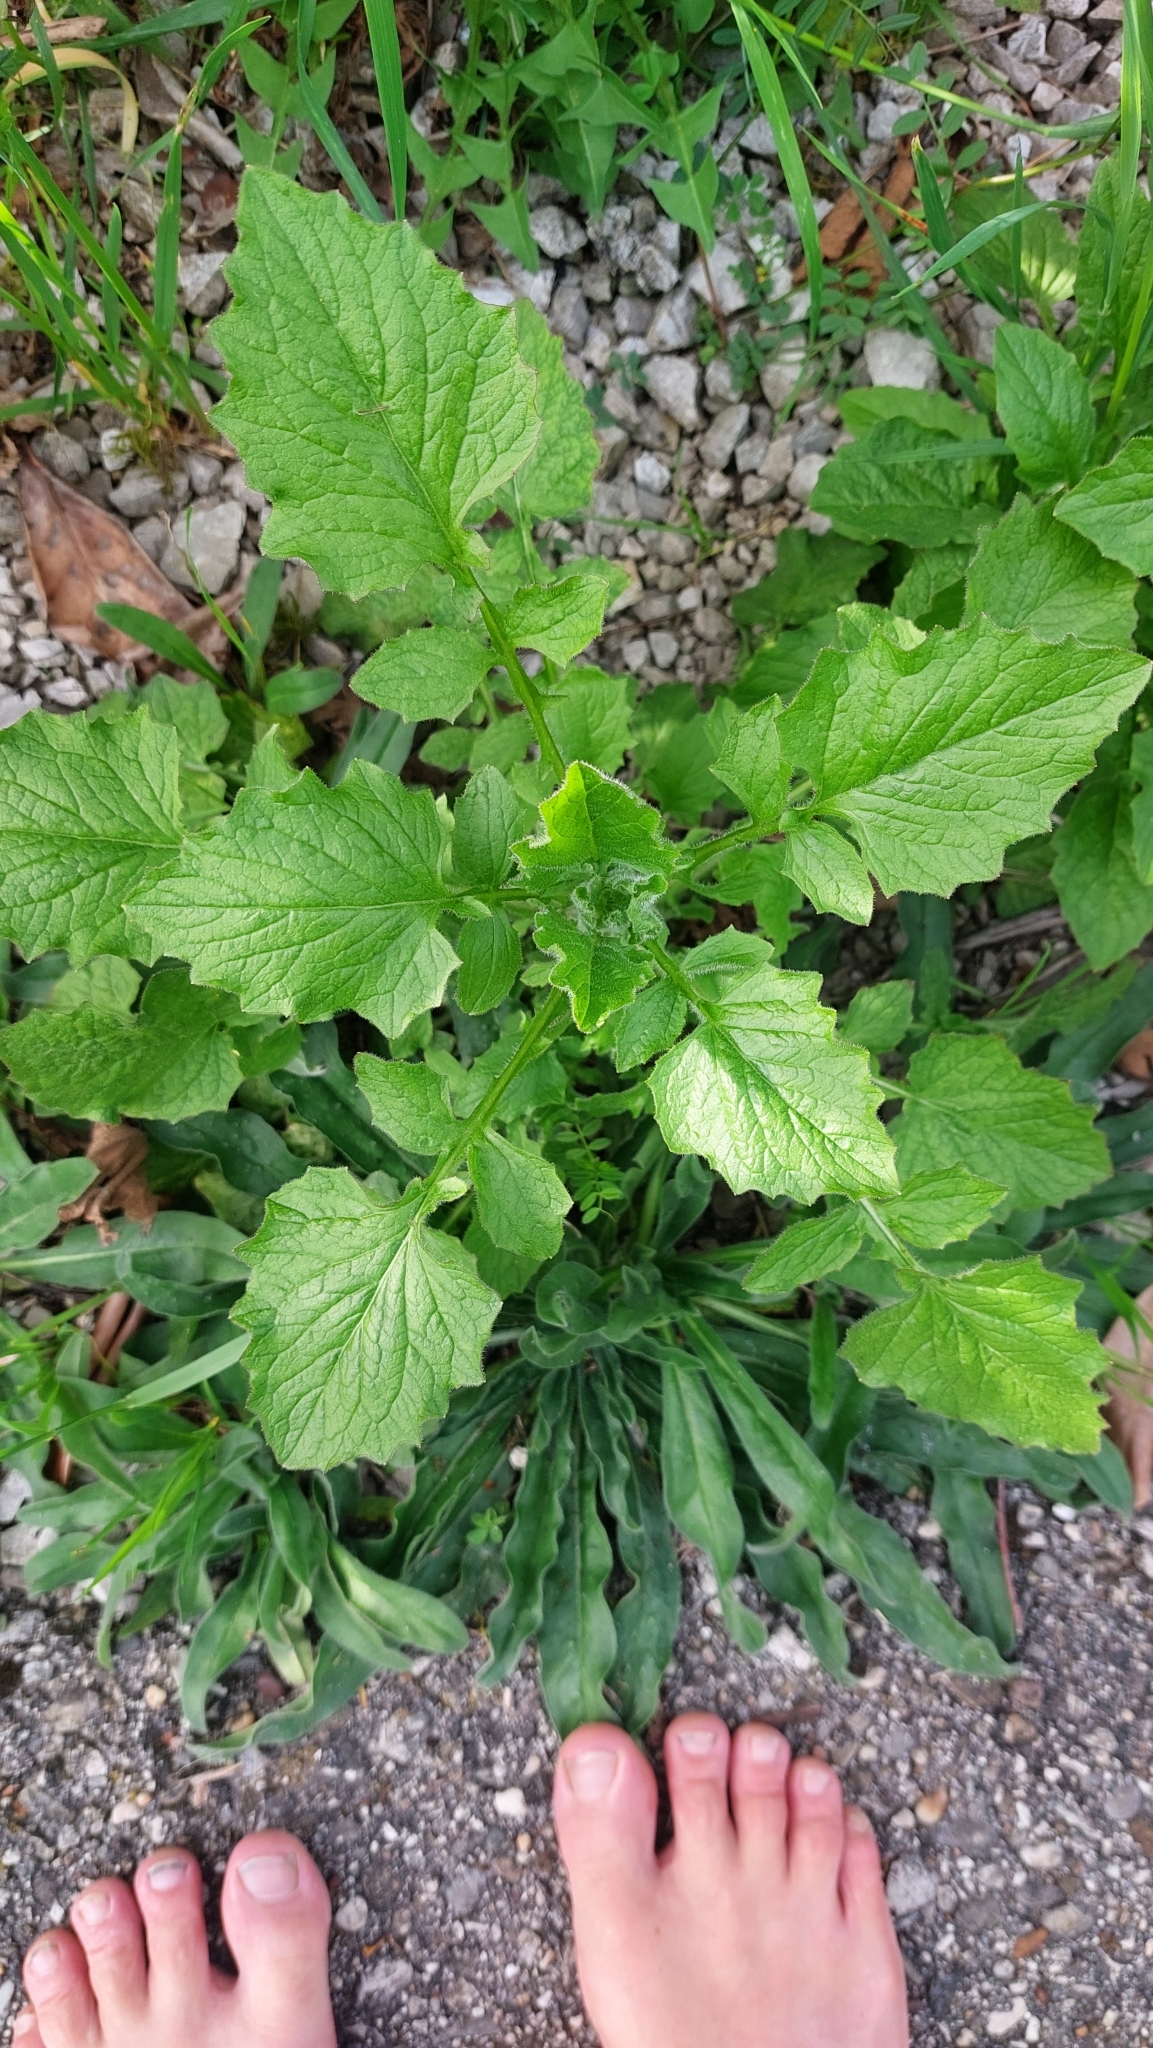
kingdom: Plantae
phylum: Tracheophyta
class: Magnoliopsida
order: Asterales
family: Asteraceae
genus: Lapsana
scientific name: Lapsana communis
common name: Nipplewort
